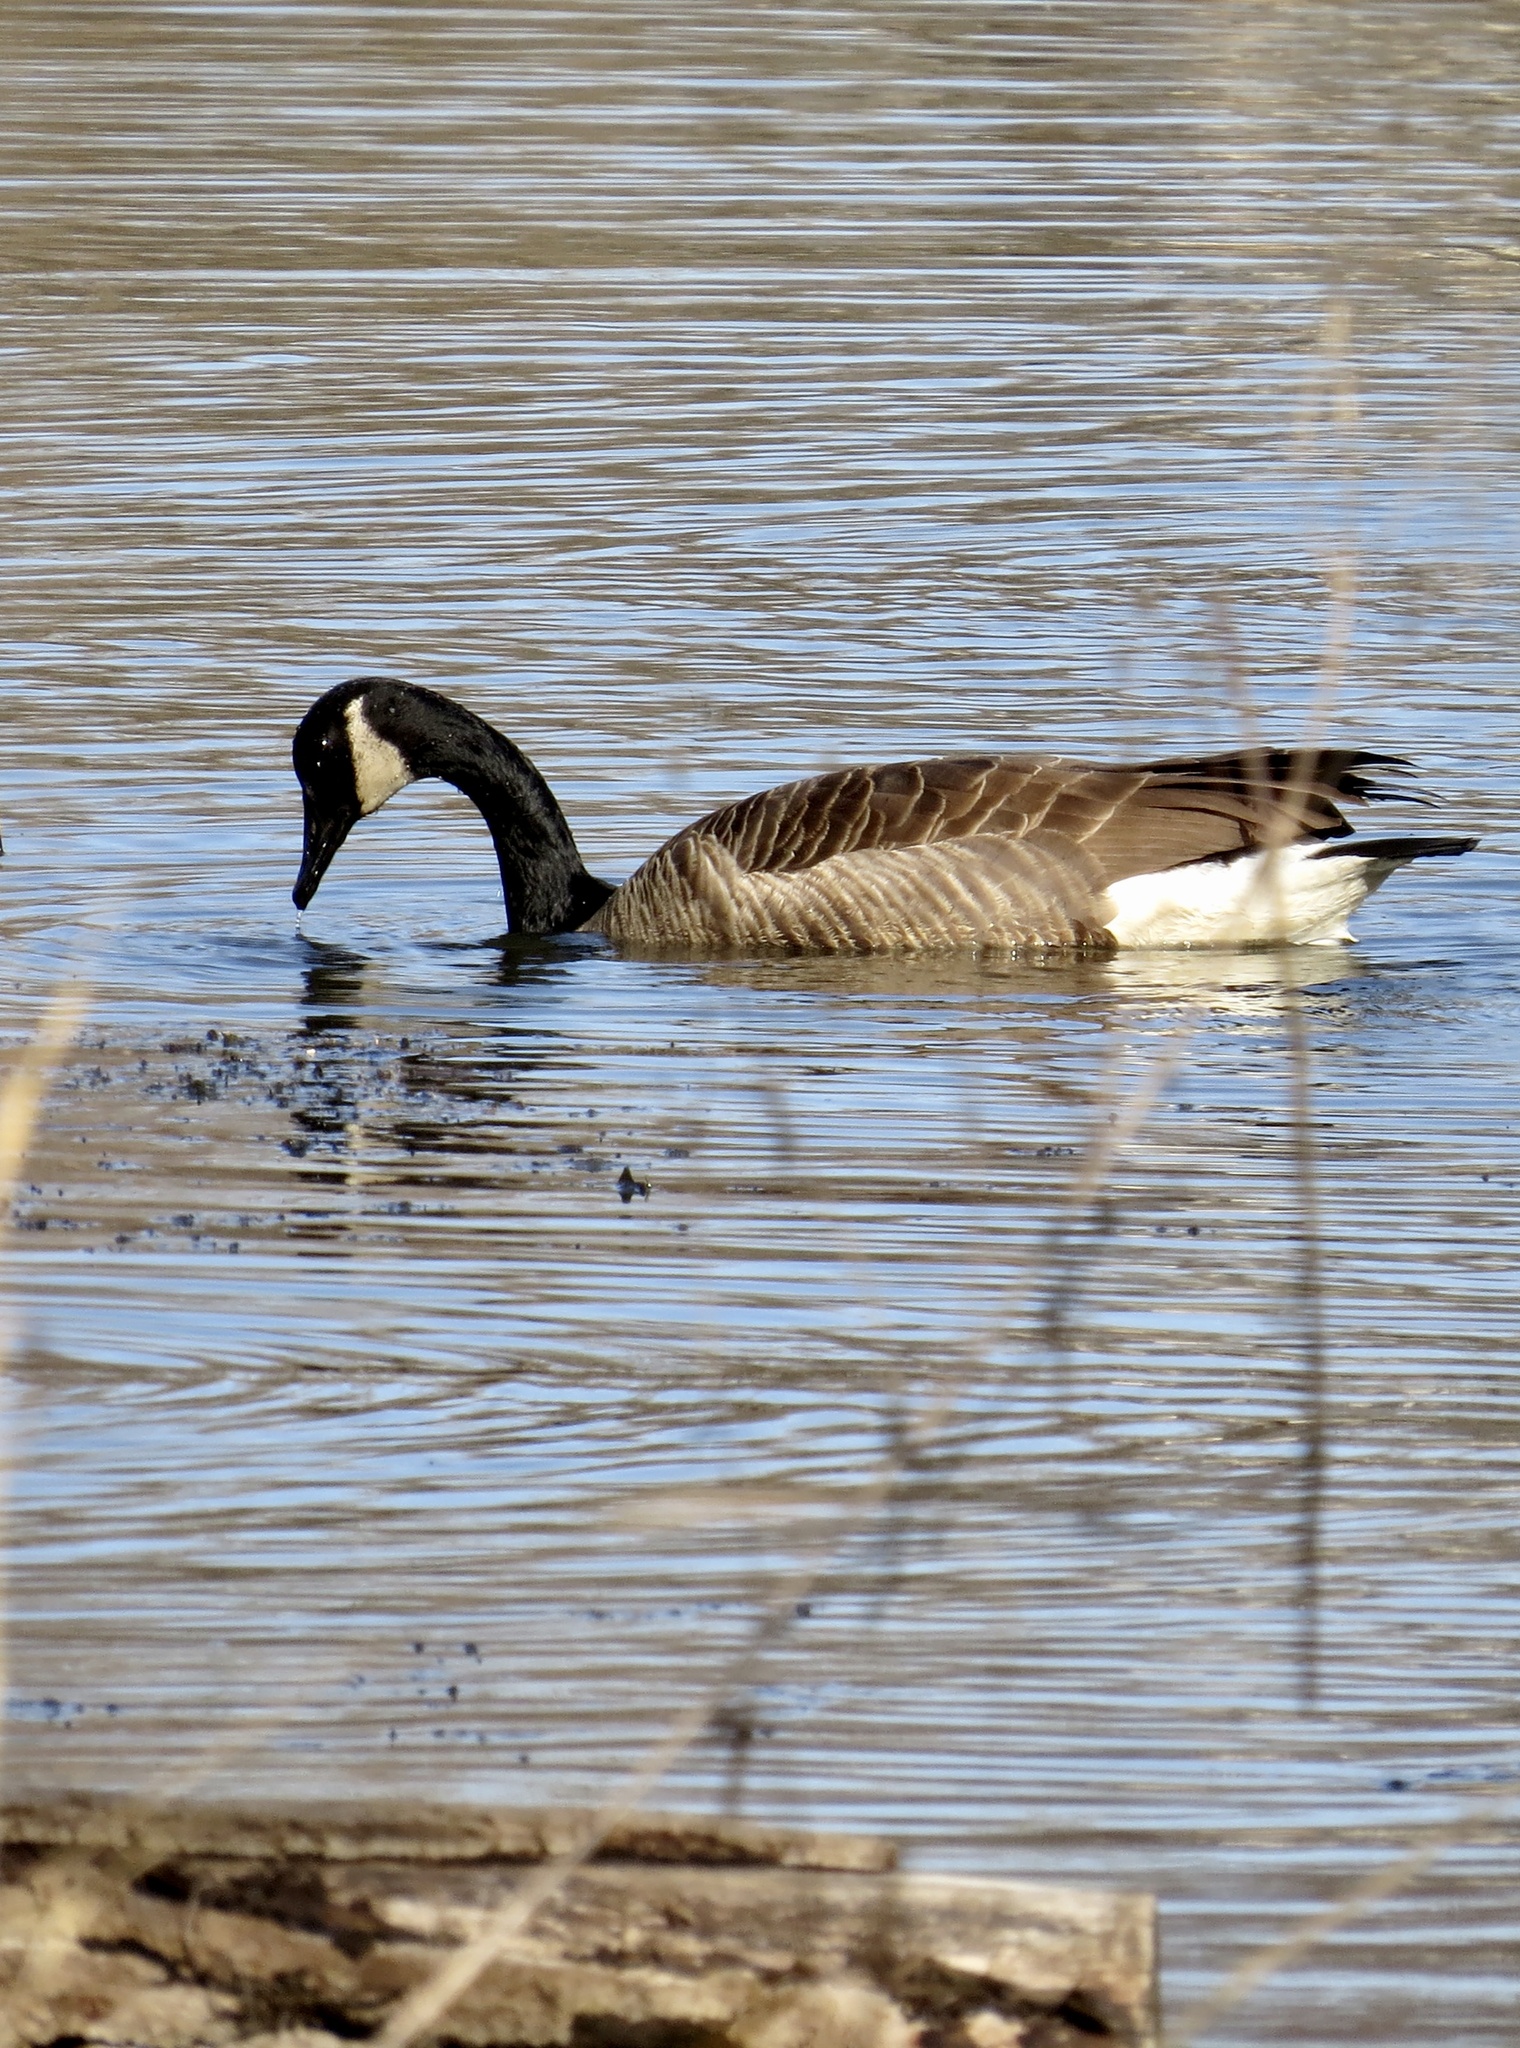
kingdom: Animalia
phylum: Chordata
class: Aves
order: Anseriformes
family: Anatidae
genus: Branta
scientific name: Branta canadensis
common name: Canada goose
